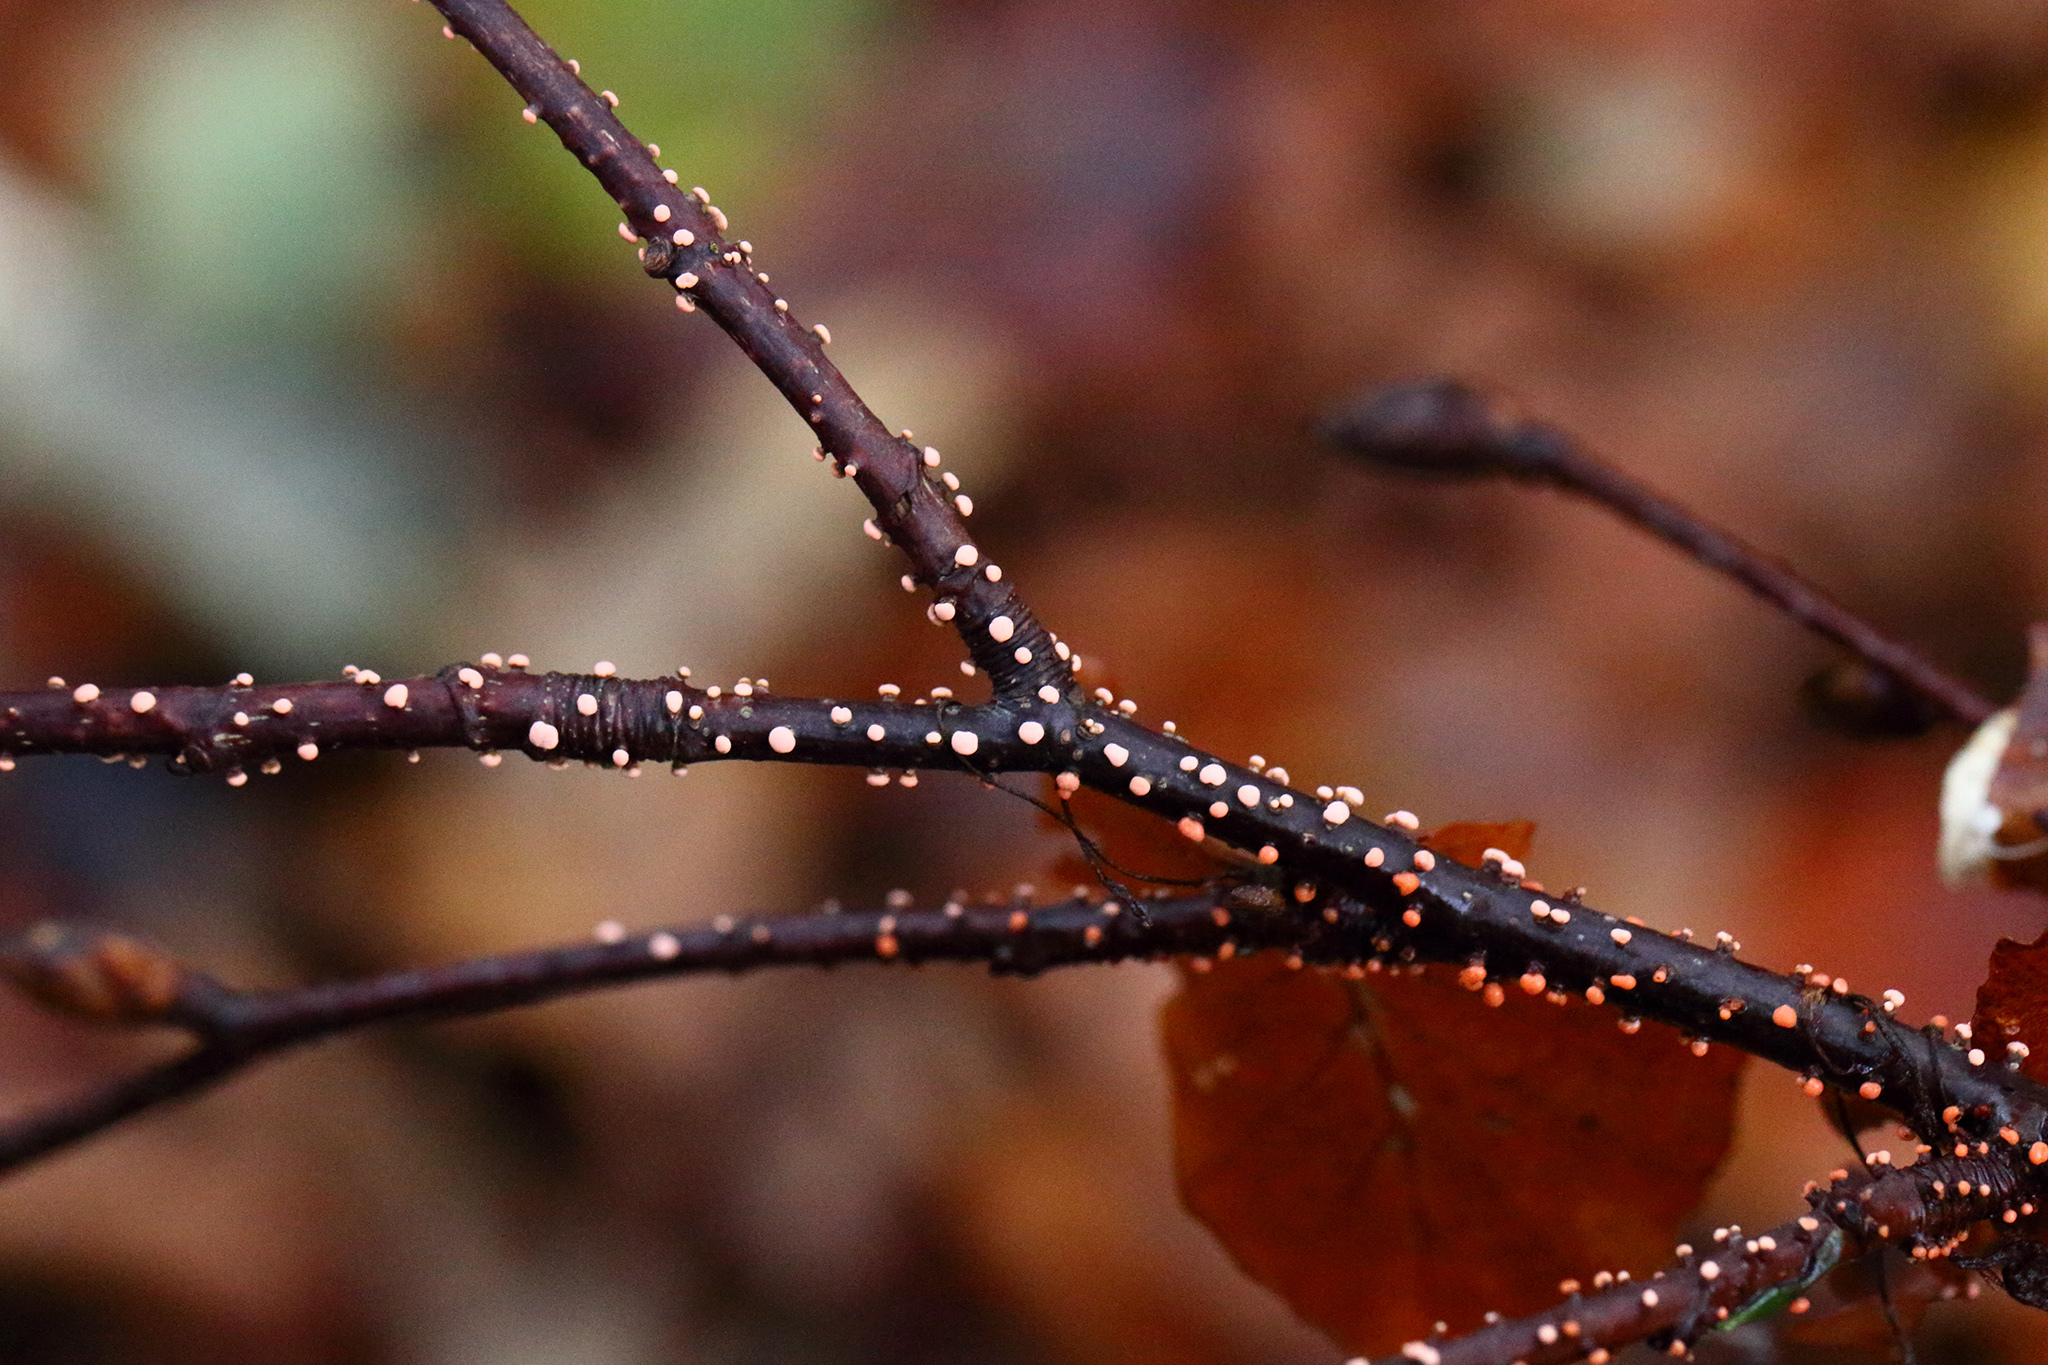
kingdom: Fungi
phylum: Ascomycota
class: Sordariomycetes
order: Hypocreales
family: Nectriaceae
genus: Nectria
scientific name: Nectria cinnabarina
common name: Coral spot
